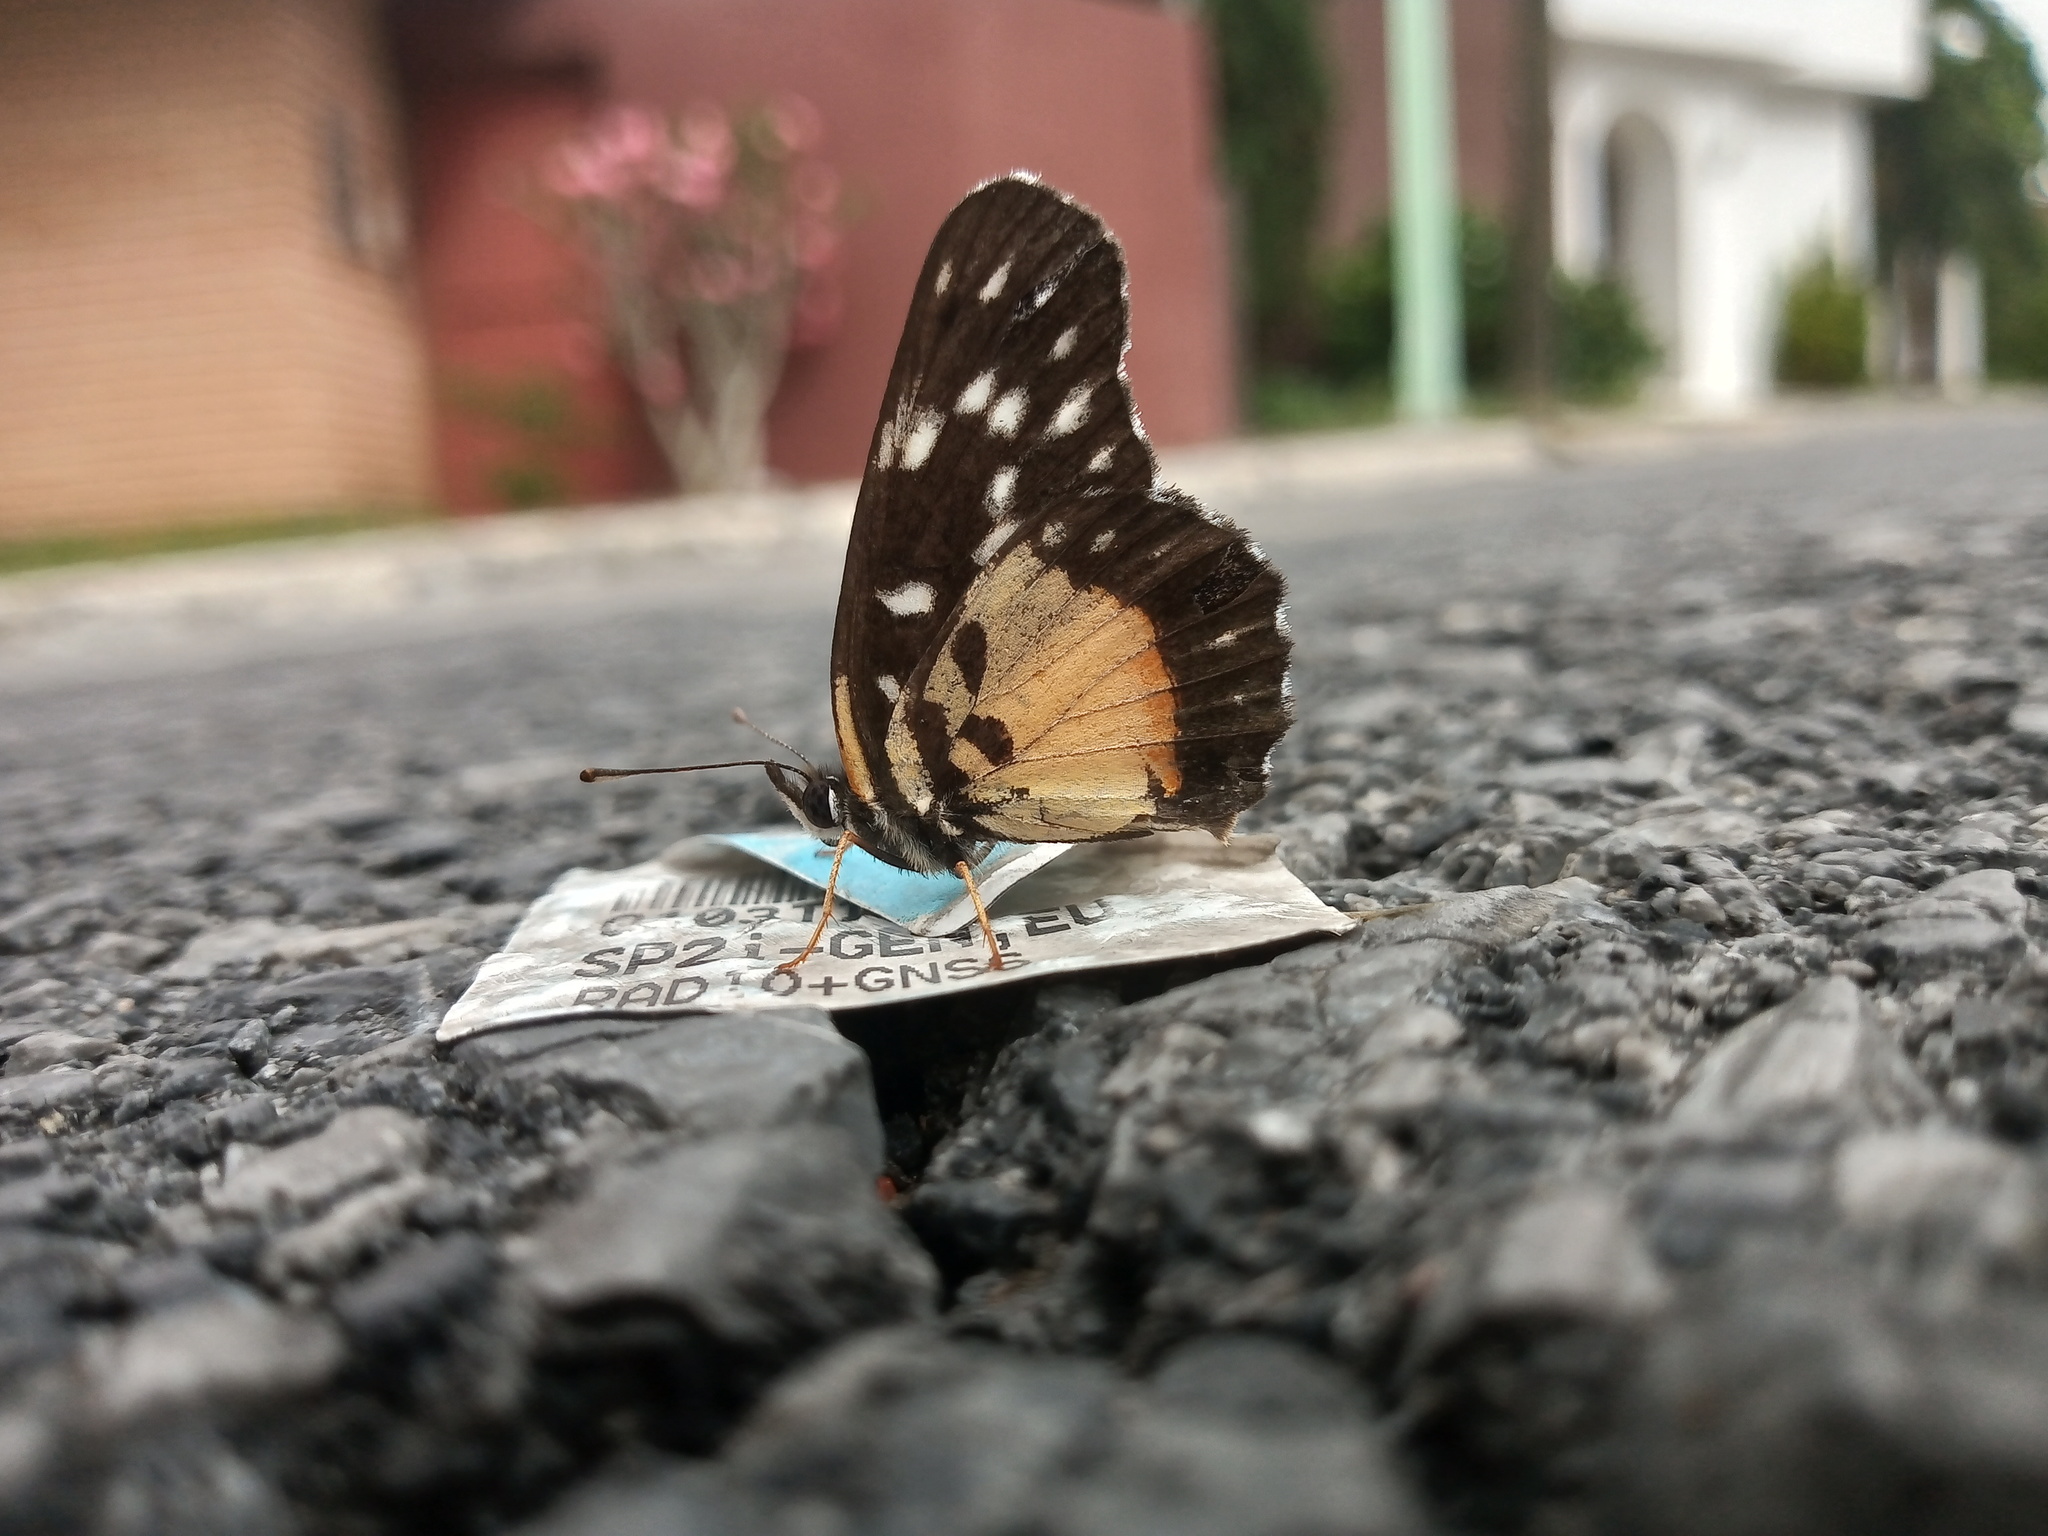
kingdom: Animalia
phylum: Arthropoda
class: Insecta
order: Lepidoptera
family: Nymphalidae
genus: Chlosyne
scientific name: Chlosyne rosita
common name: Rosita patch
